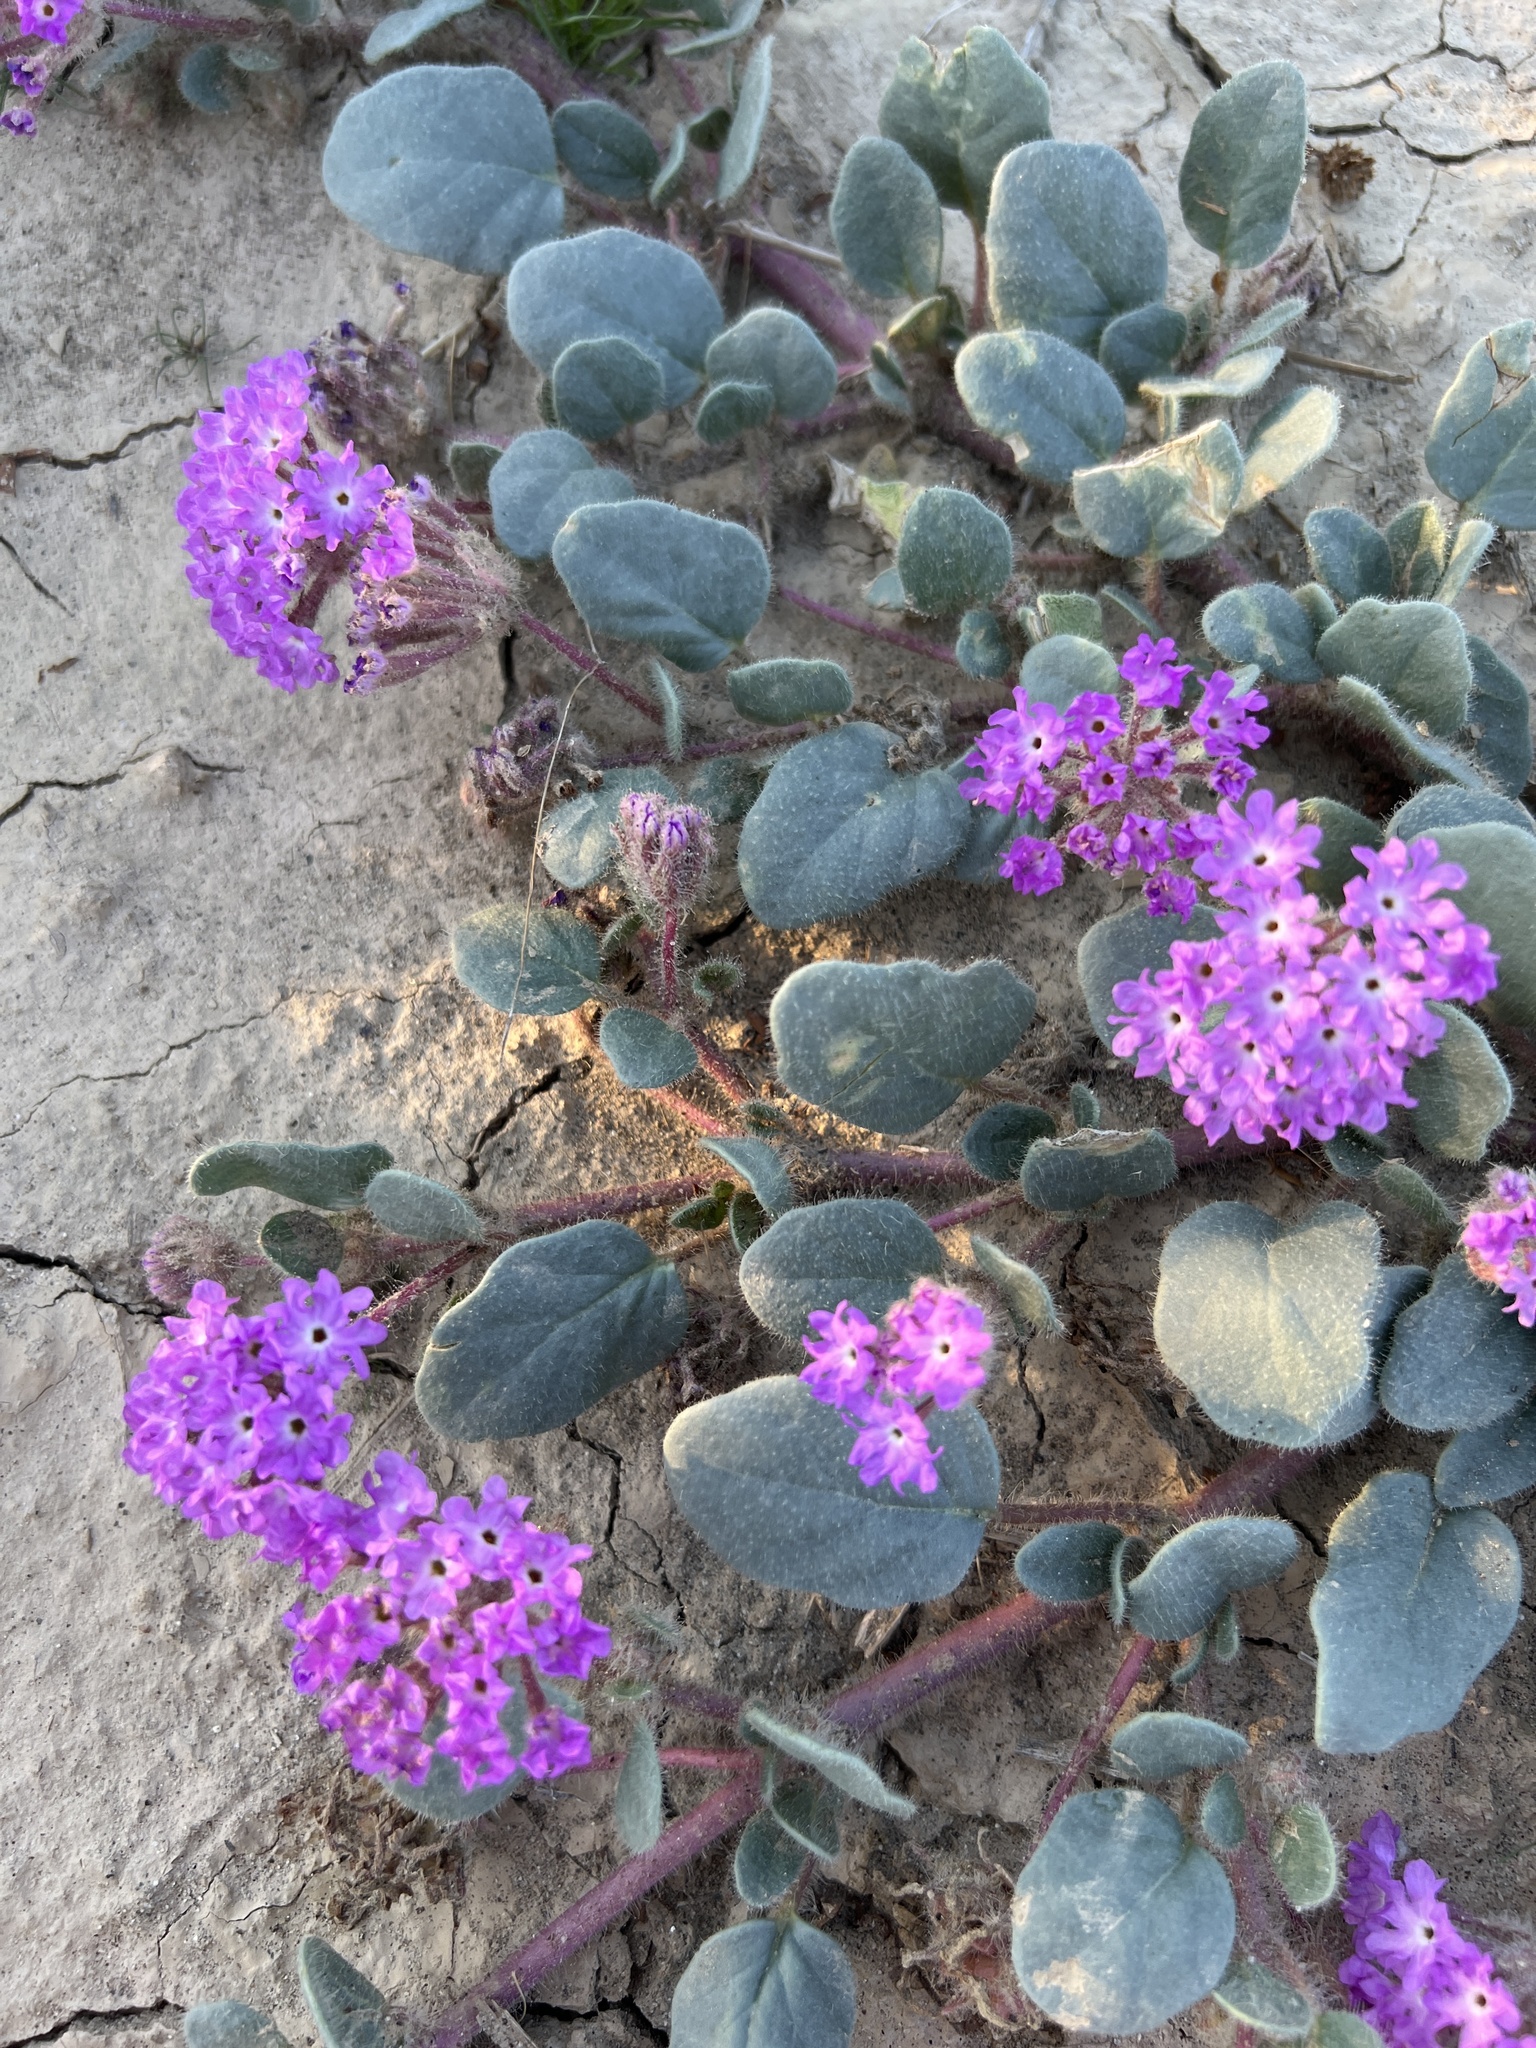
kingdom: Plantae
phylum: Tracheophyta
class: Magnoliopsida
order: Caryophyllales
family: Nyctaginaceae
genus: Abronia
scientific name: Abronia villosa
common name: Desert sand-verbena
